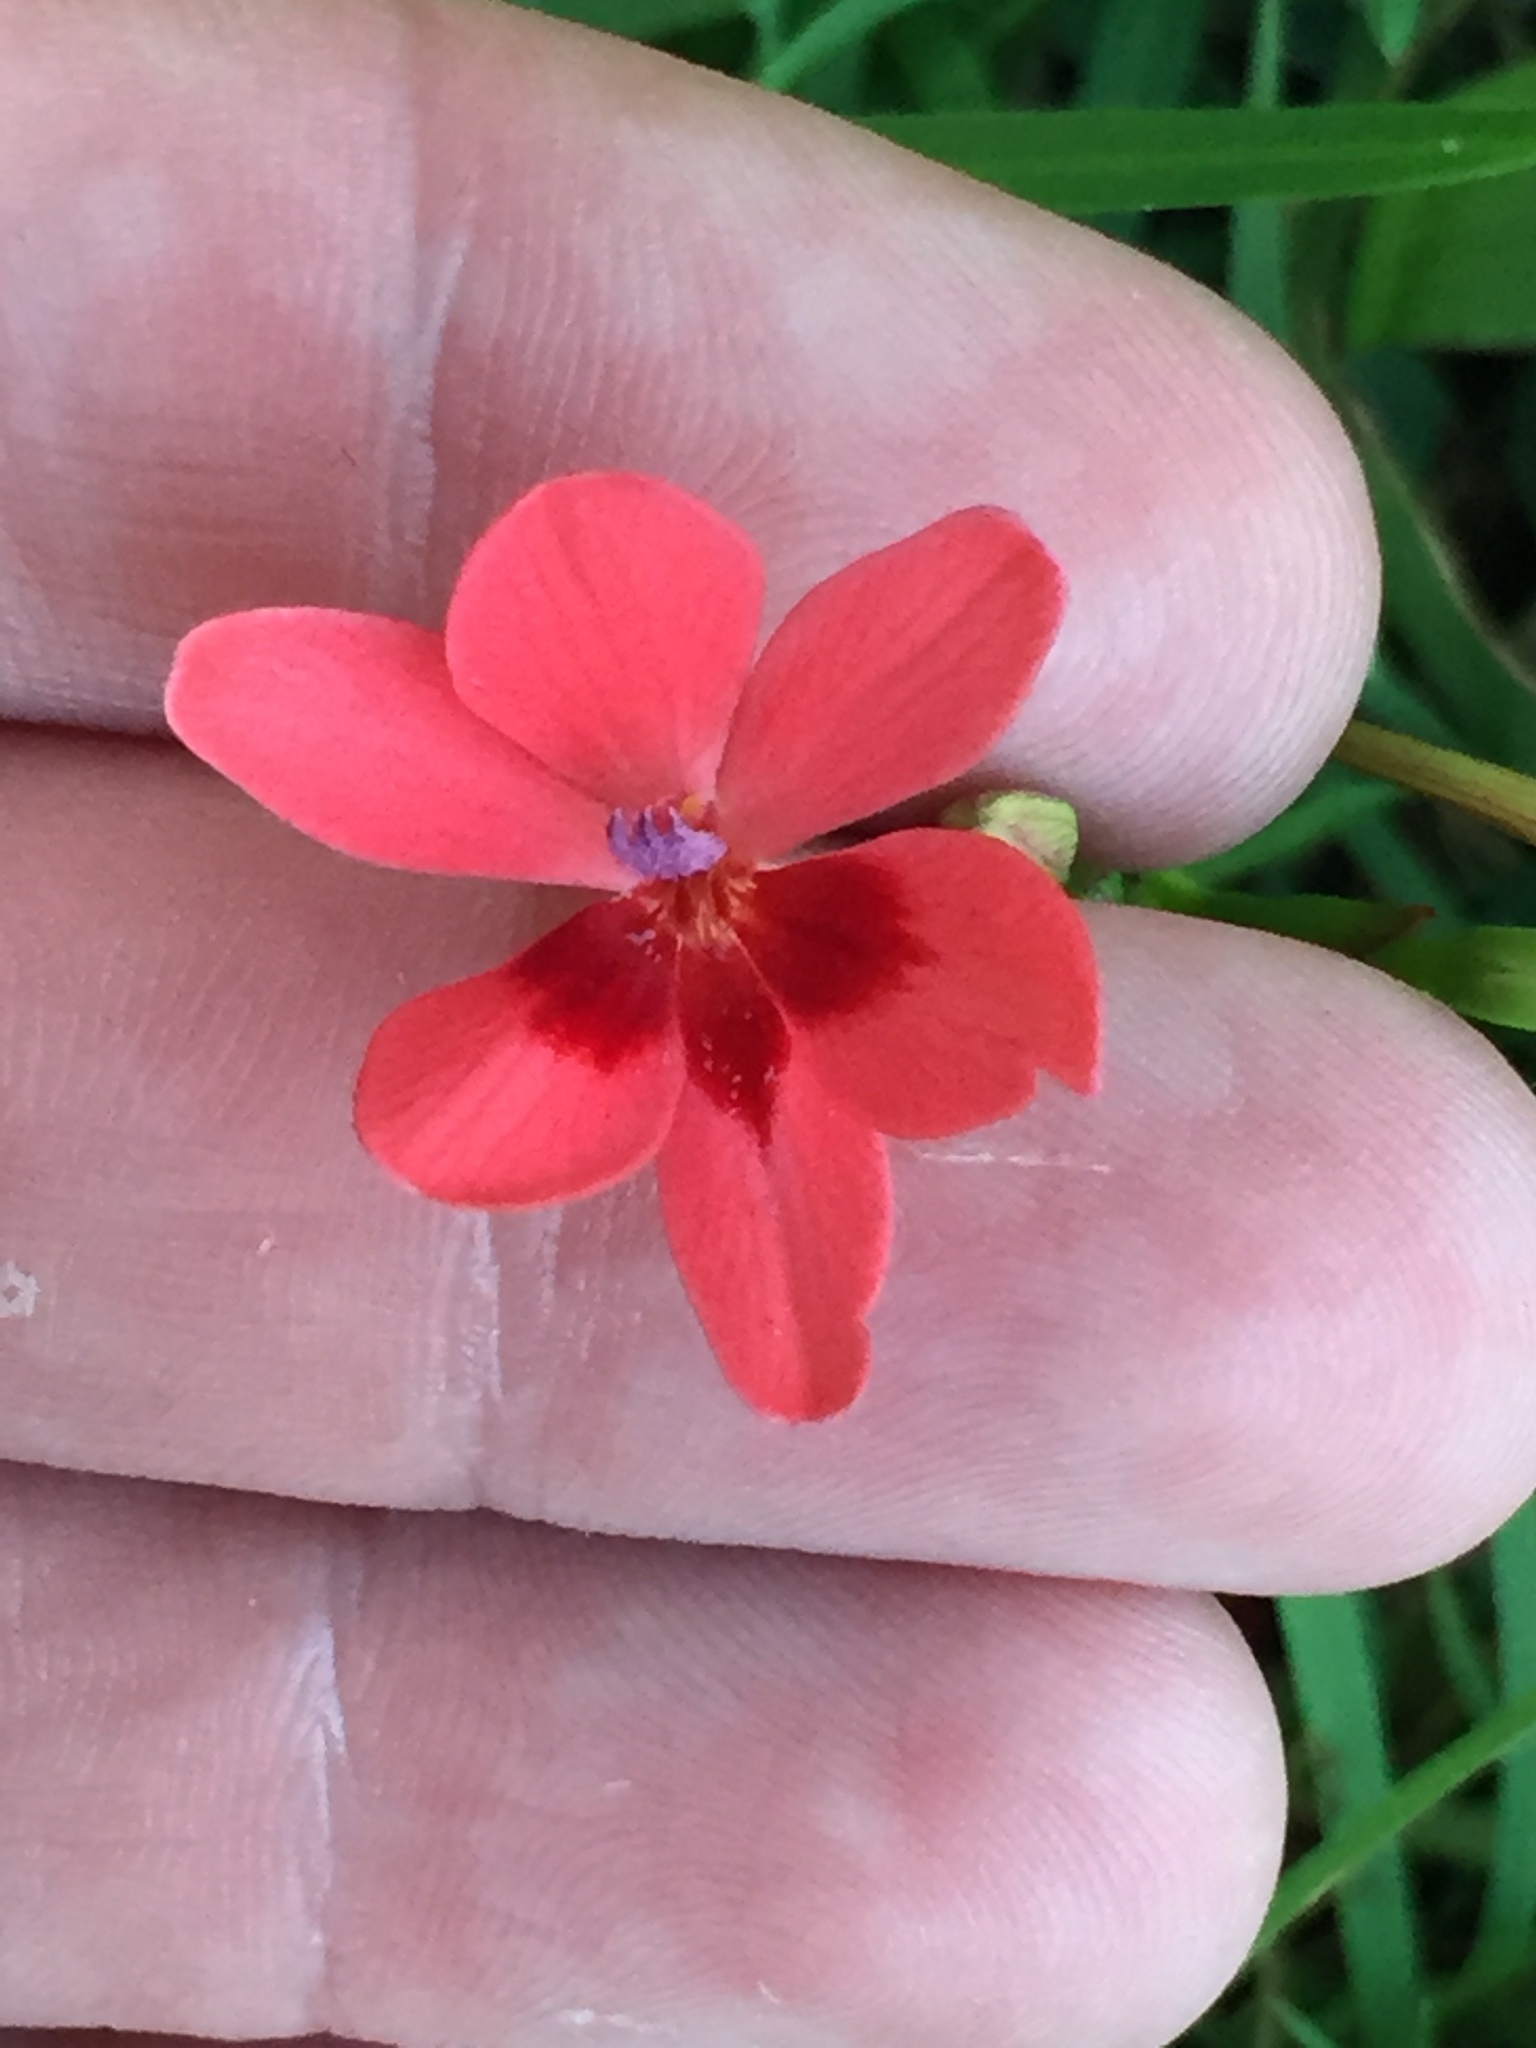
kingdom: Plantae
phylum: Tracheophyta
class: Liliopsida
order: Asparagales
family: Iridaceae
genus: Freesia
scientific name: Freesia laxa
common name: False freesia
